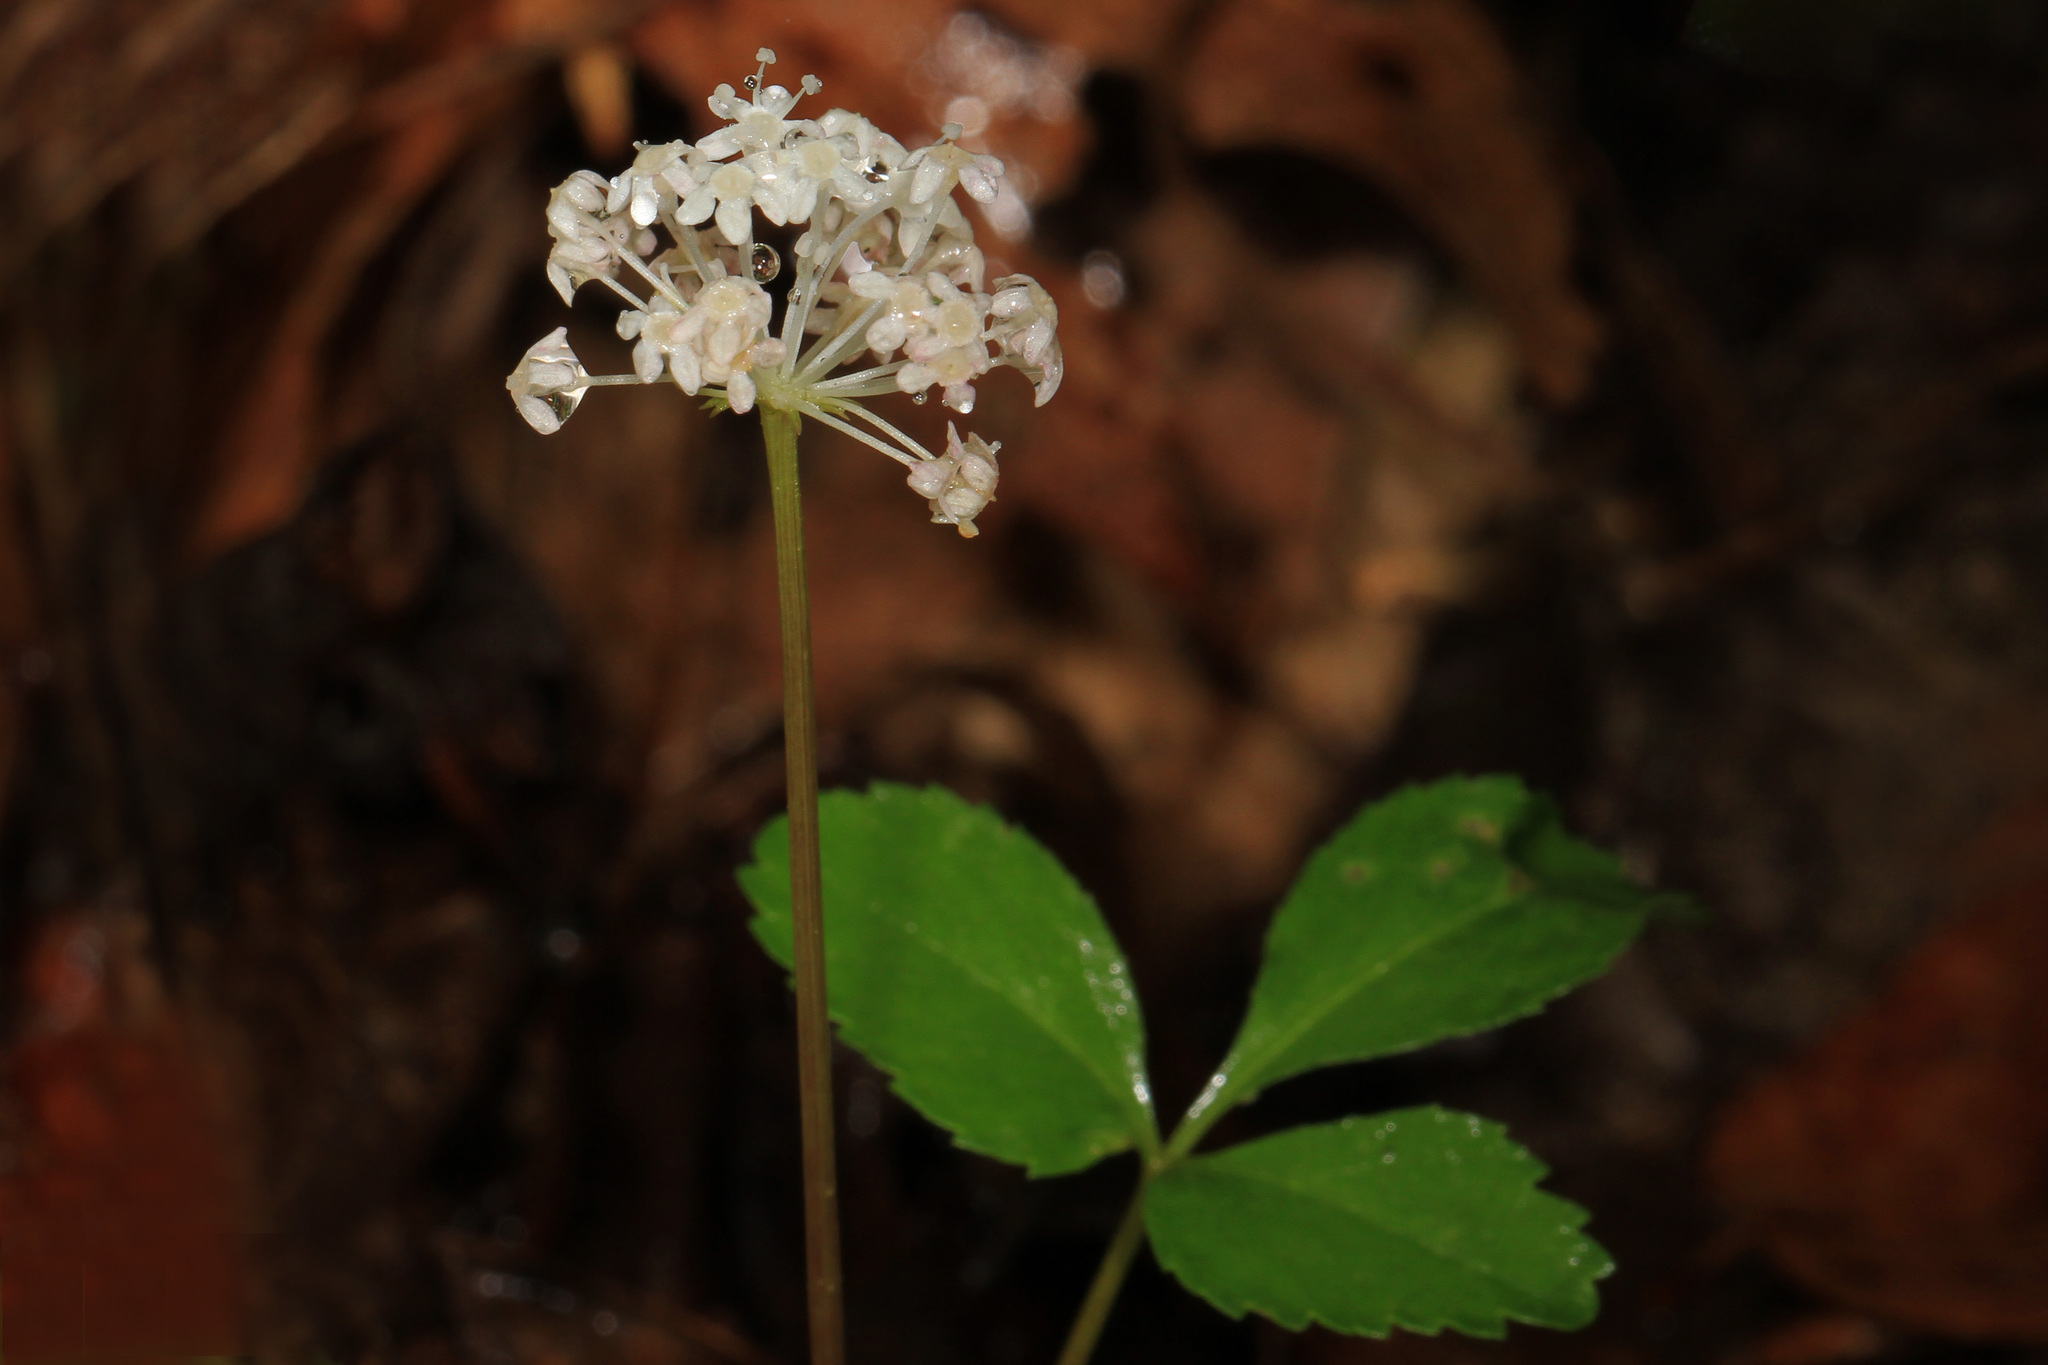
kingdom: Plantae
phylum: Tracheophyta
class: Magnoliopsida
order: Apiales
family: Araliaceae
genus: Panax
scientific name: Panax trifolius
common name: Dwarf ginseng
